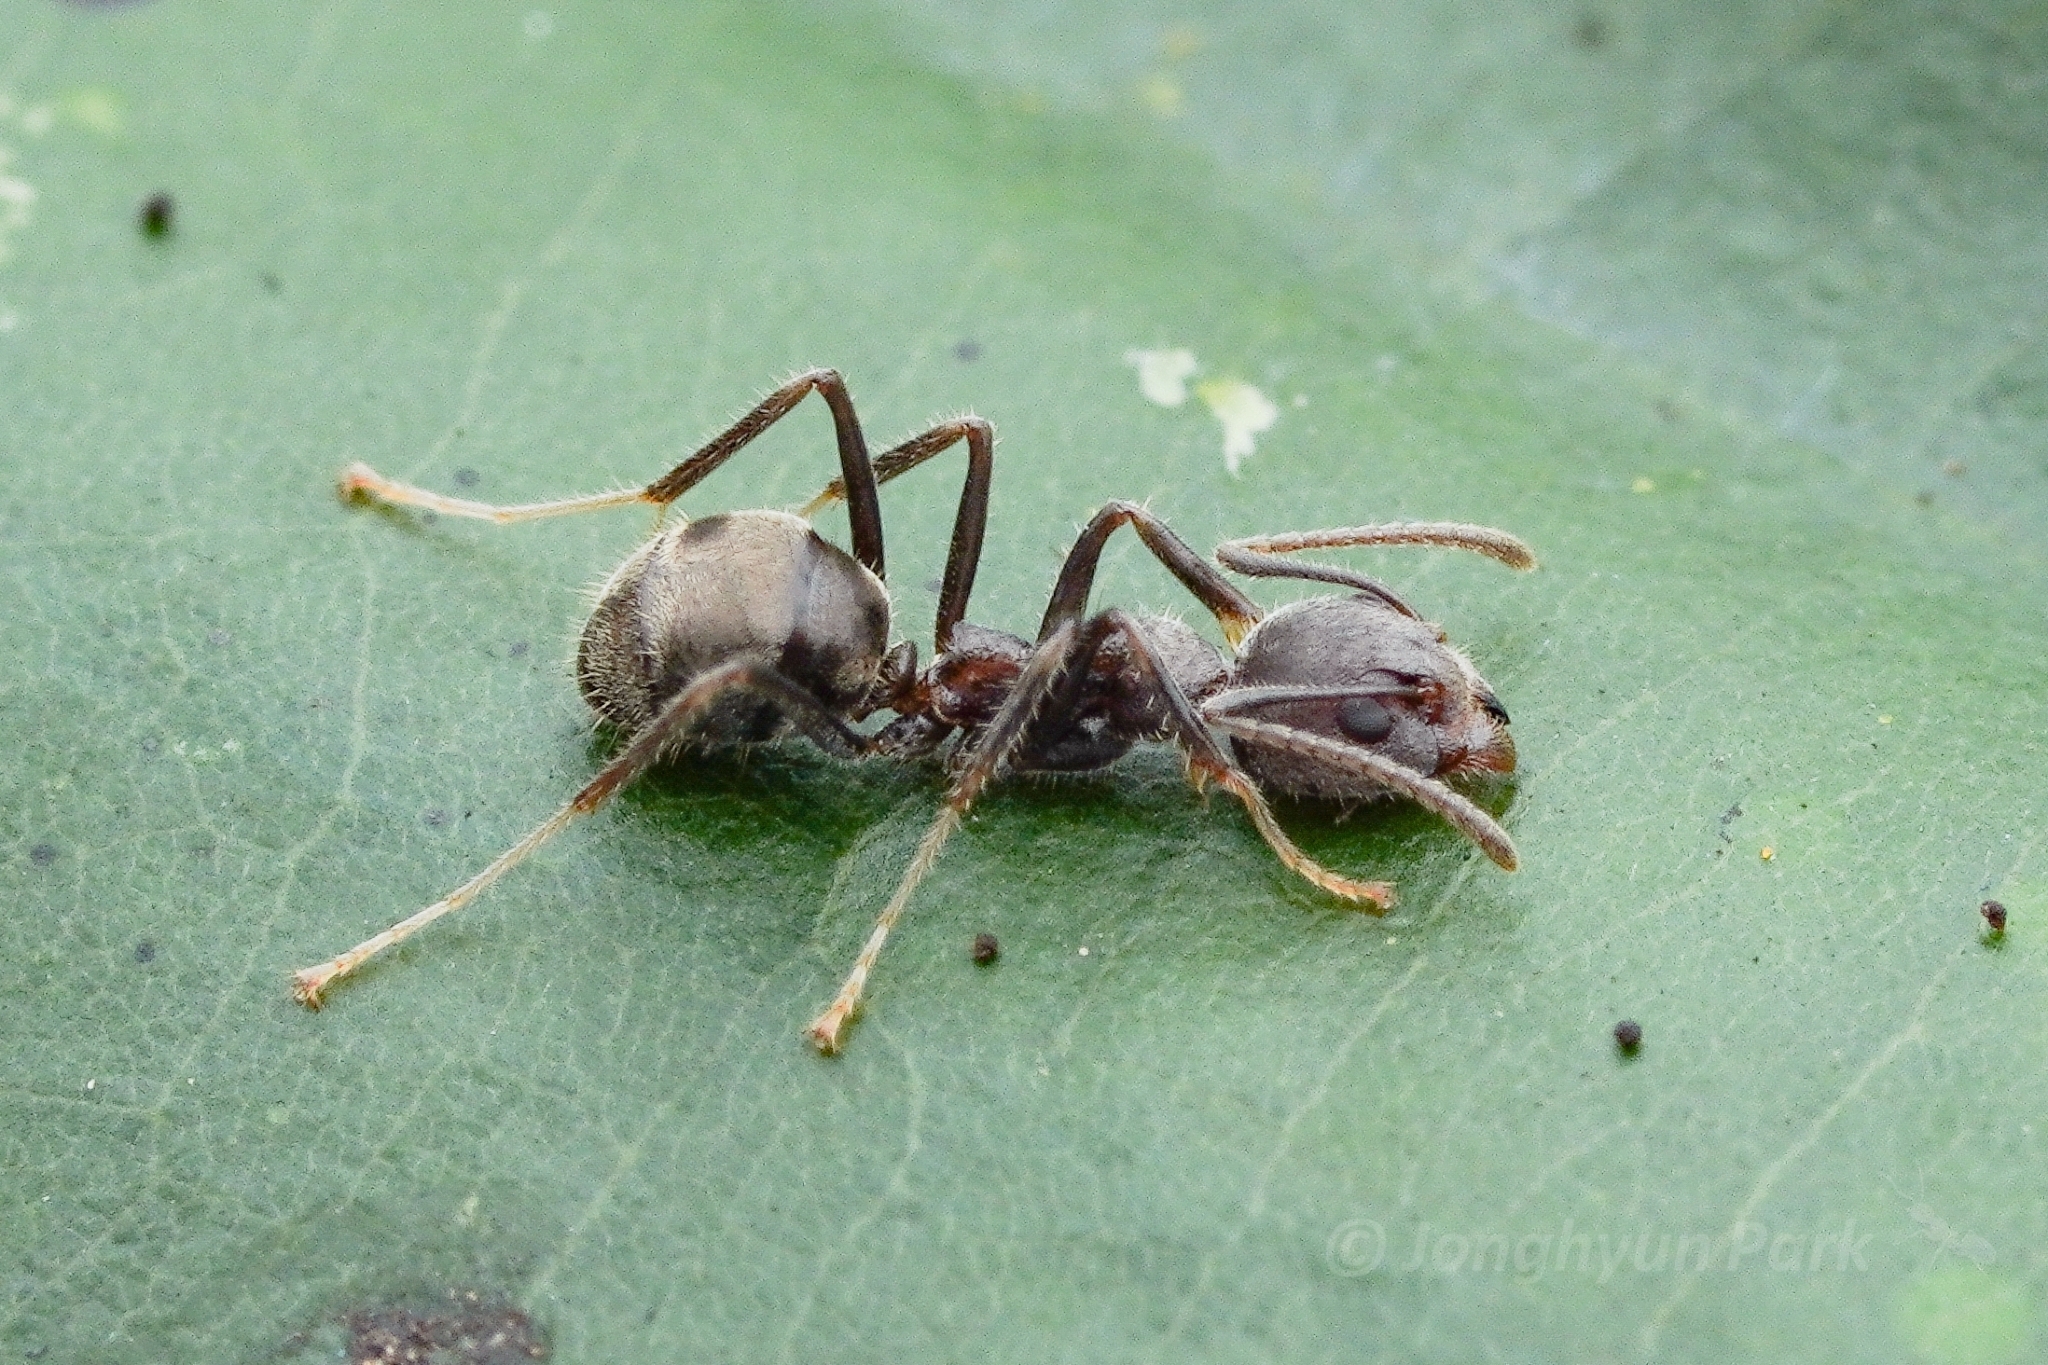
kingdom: Animalia
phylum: Arthropoda
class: Insecta
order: Hymenoptera
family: Formicidae
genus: Dolichoderus
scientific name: Dolichoderus affinis
